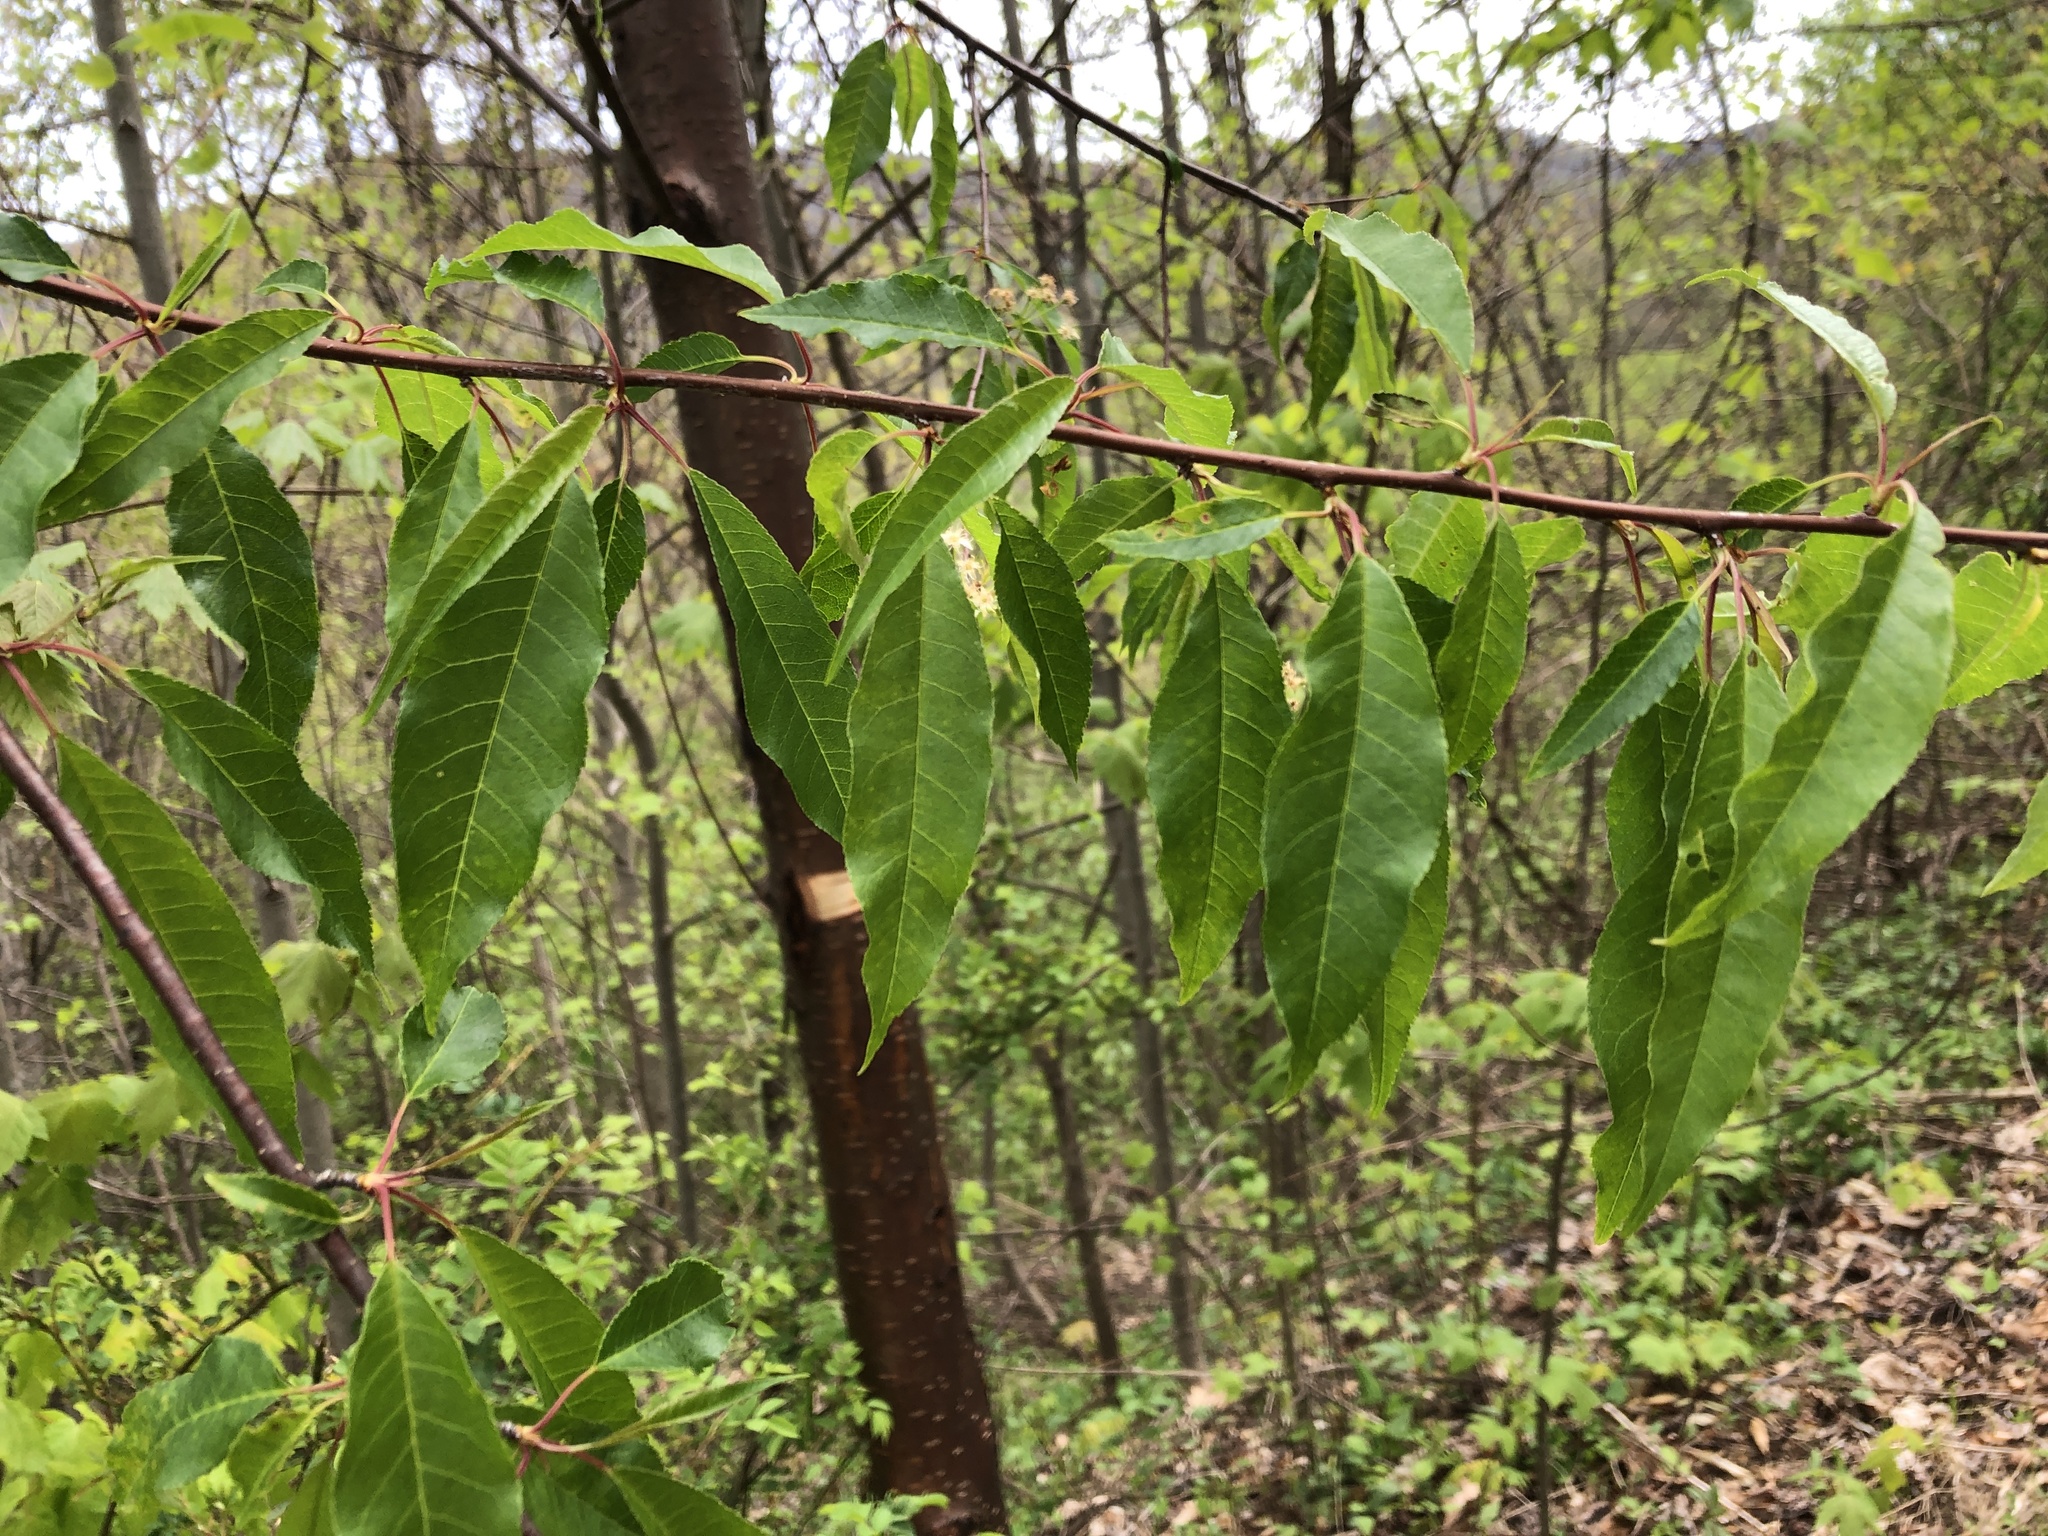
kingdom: Plantae
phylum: Tracheophyta
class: Magnoliopsida
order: Rosales
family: Rosaceae
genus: Prunus
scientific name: Prunus pensylvanica
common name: Pin cherry
